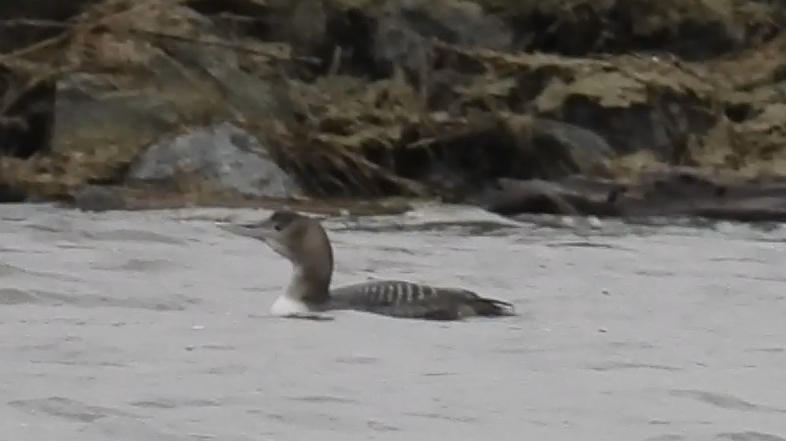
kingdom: Animalia
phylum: Chordata
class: Aves
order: Gaviiformes
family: Gaviidae
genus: Gavia
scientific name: Gavia adamsii
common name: Yellow-billed loon
